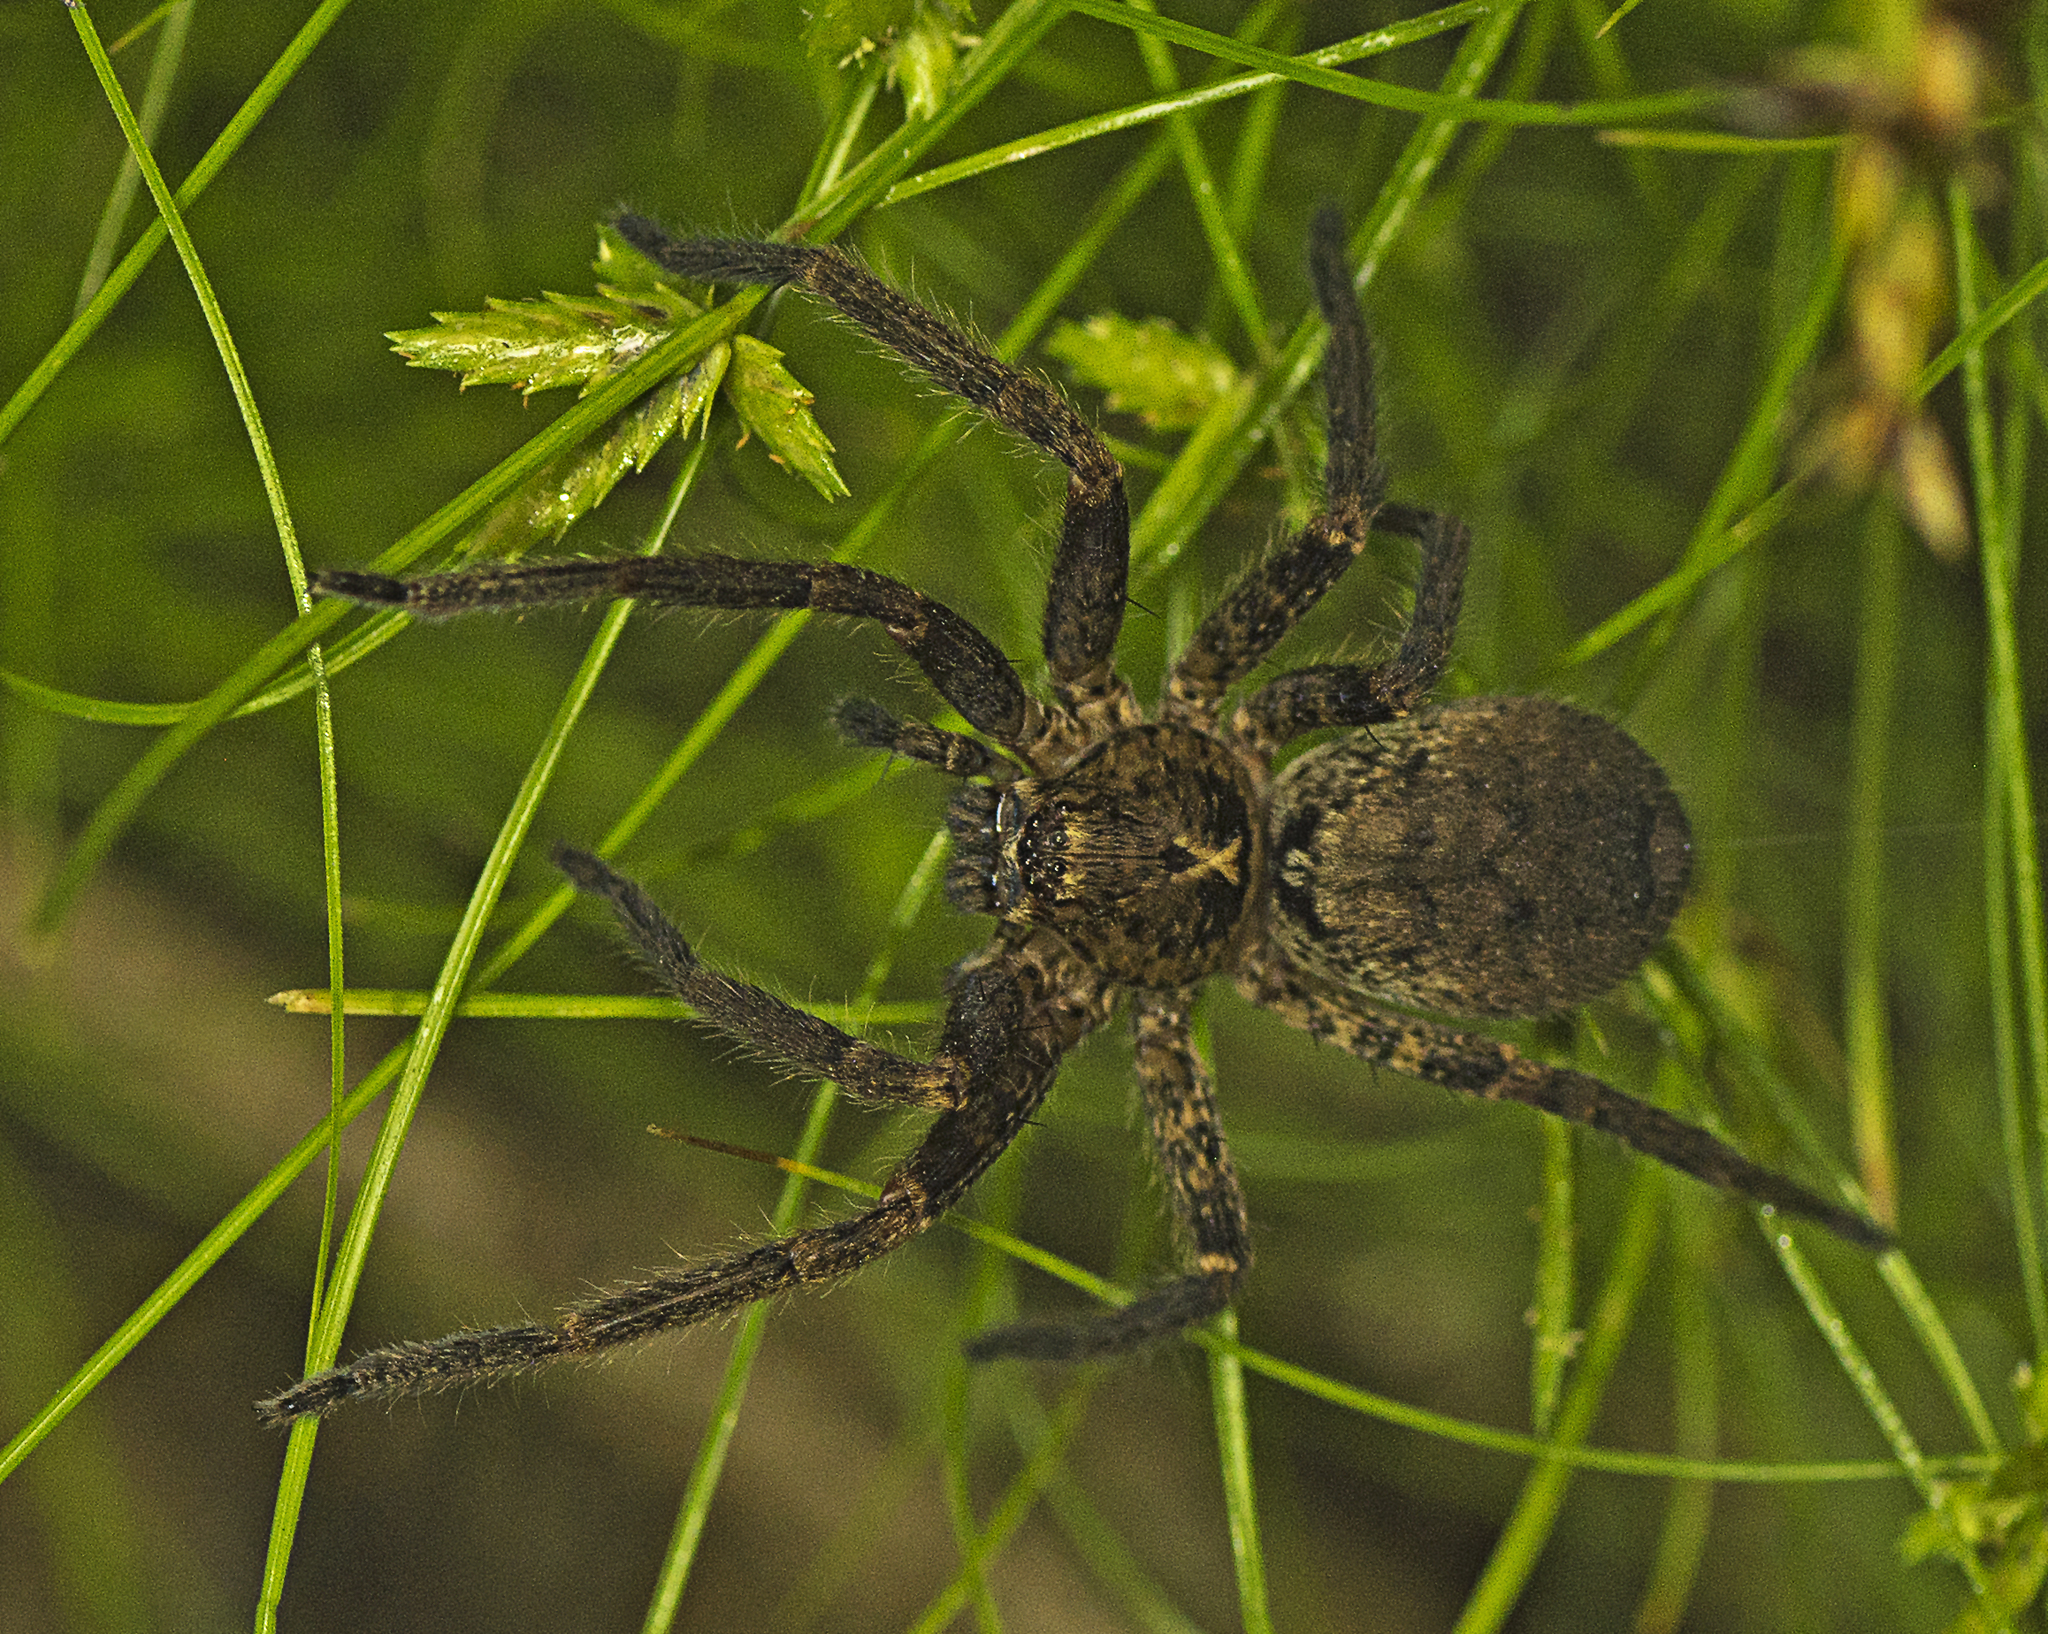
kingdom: Animalia
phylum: Arthropoda
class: Arachnida
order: Araneae
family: Sparassidae
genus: Heteropoda
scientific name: Heteropoda hillerae
